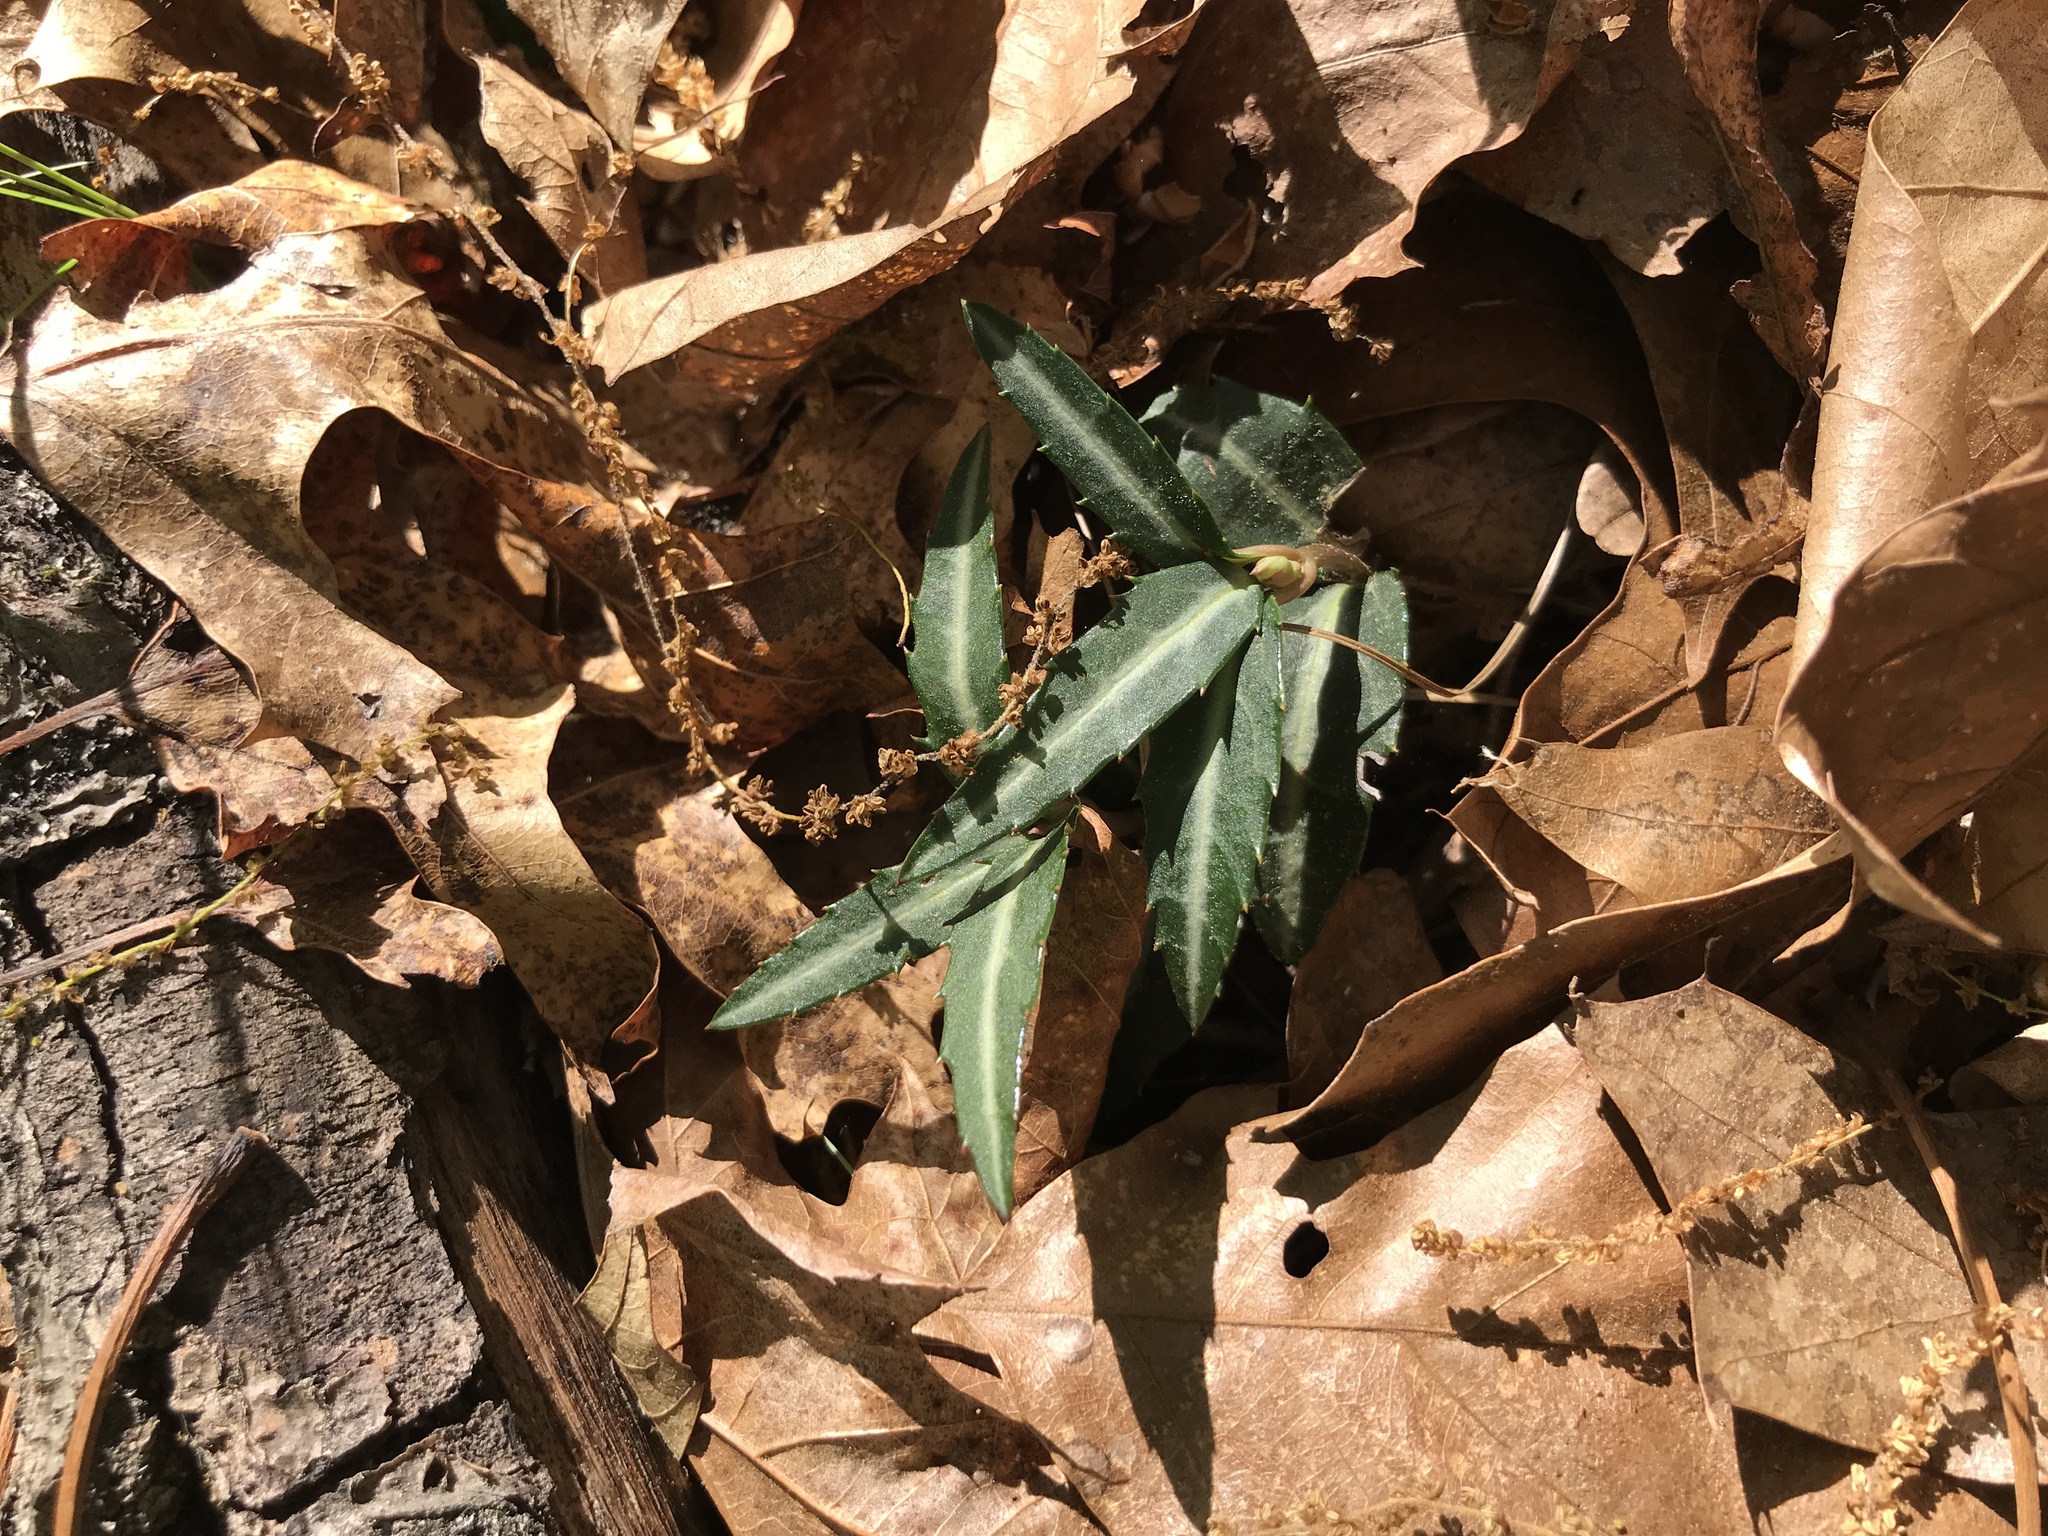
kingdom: Plantae
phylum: Tracheophyta
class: Magnoliopsida
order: Ericales
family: Ericaceae
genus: Chimaphila
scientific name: Chimaphila maculata
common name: Spotted pipsissewa
